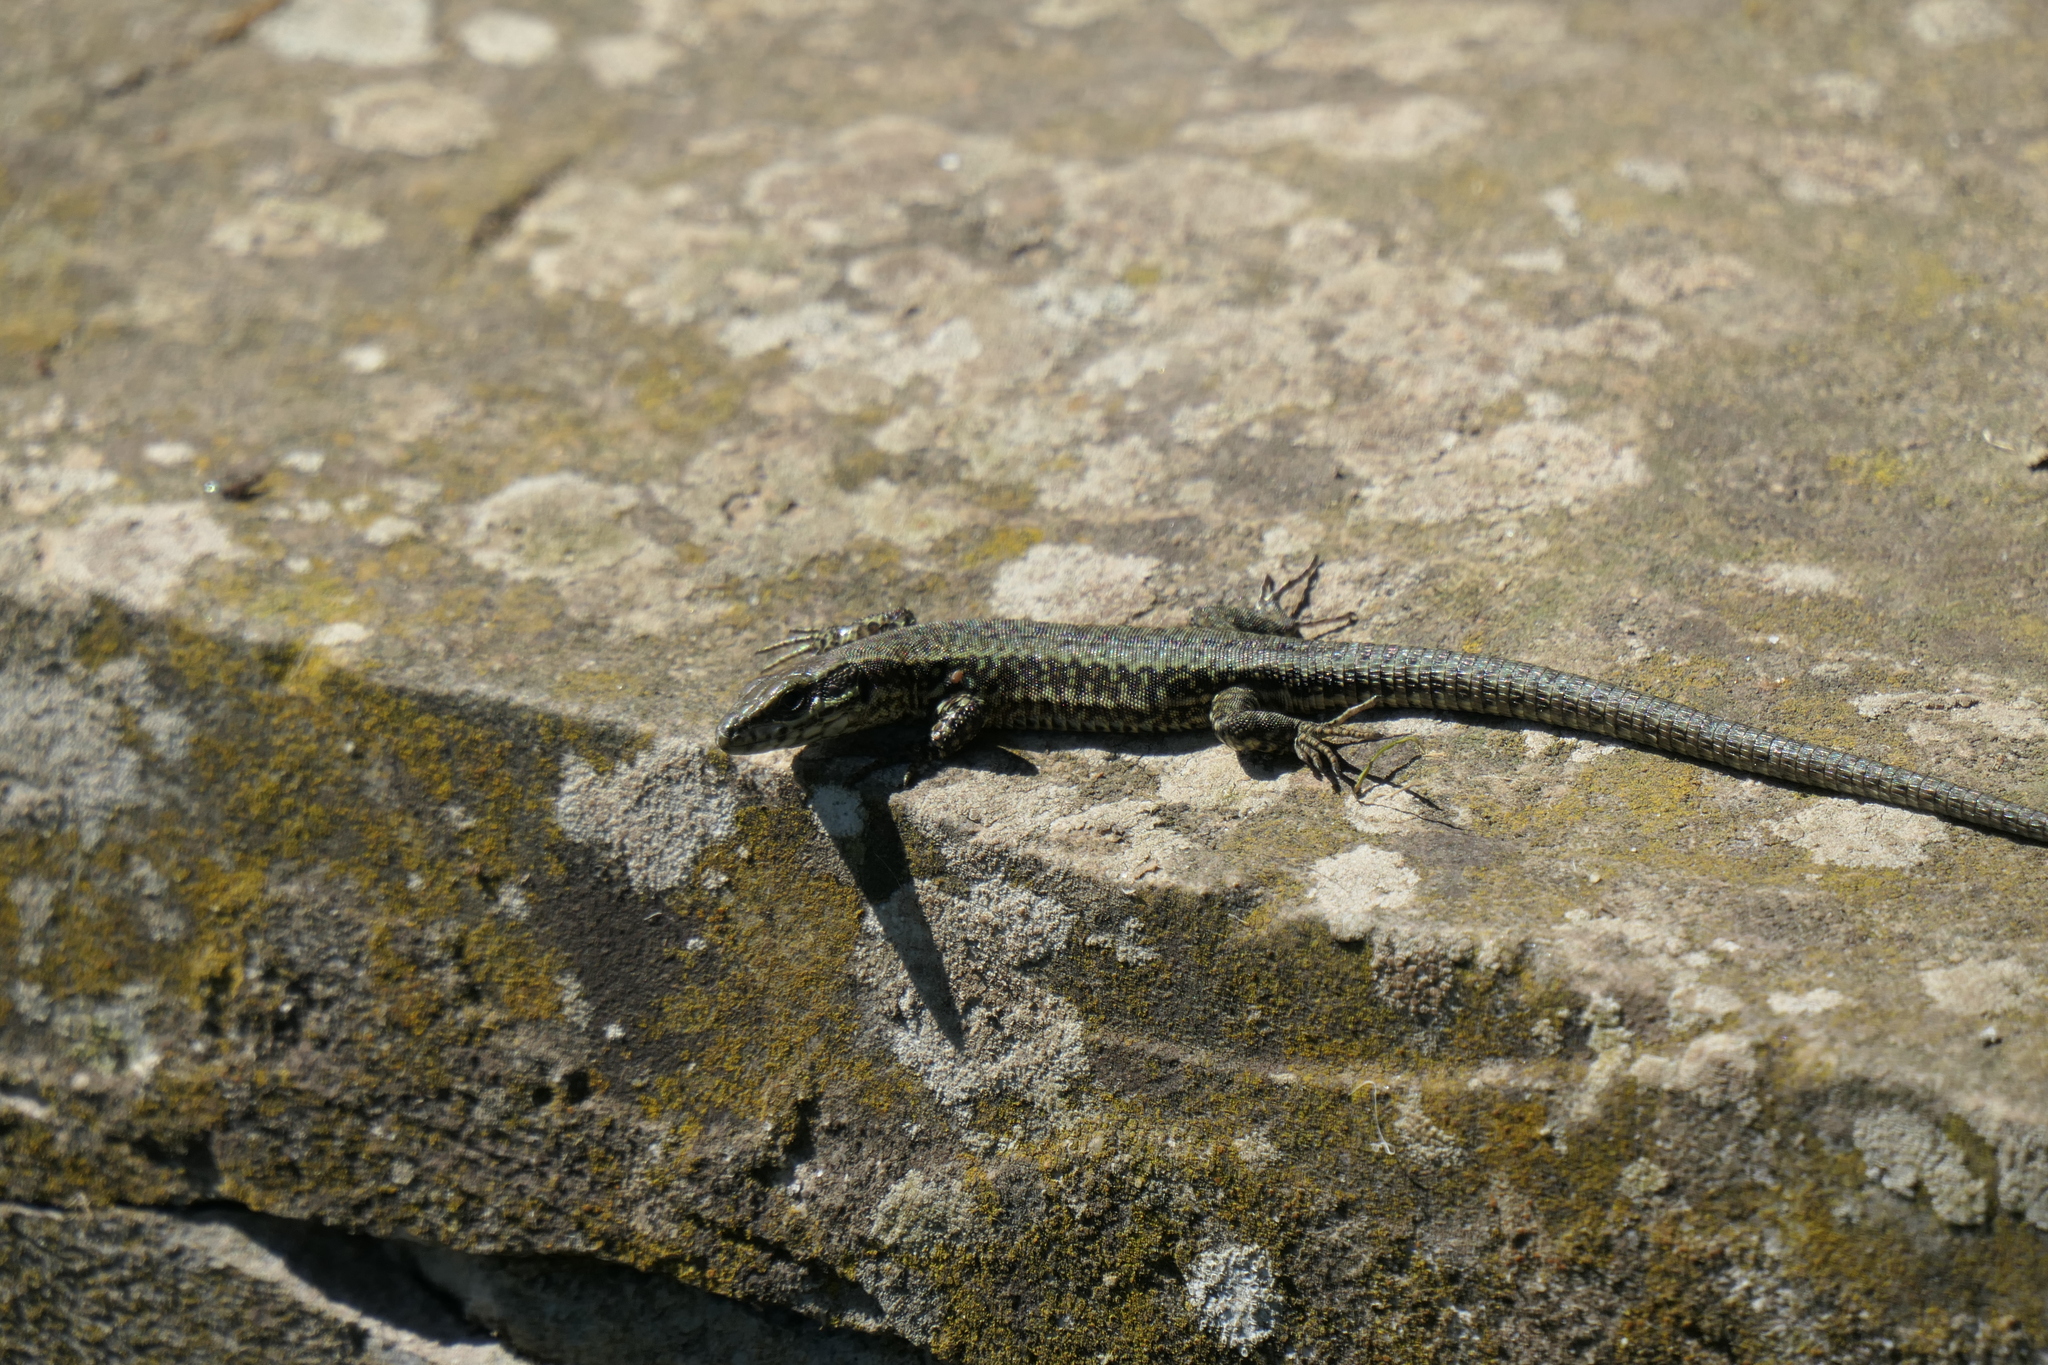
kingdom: Animalia
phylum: Chordata
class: Squamata
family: Lacertidae
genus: Podarcis
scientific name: Podarcis muralis
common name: Common wall lizard
